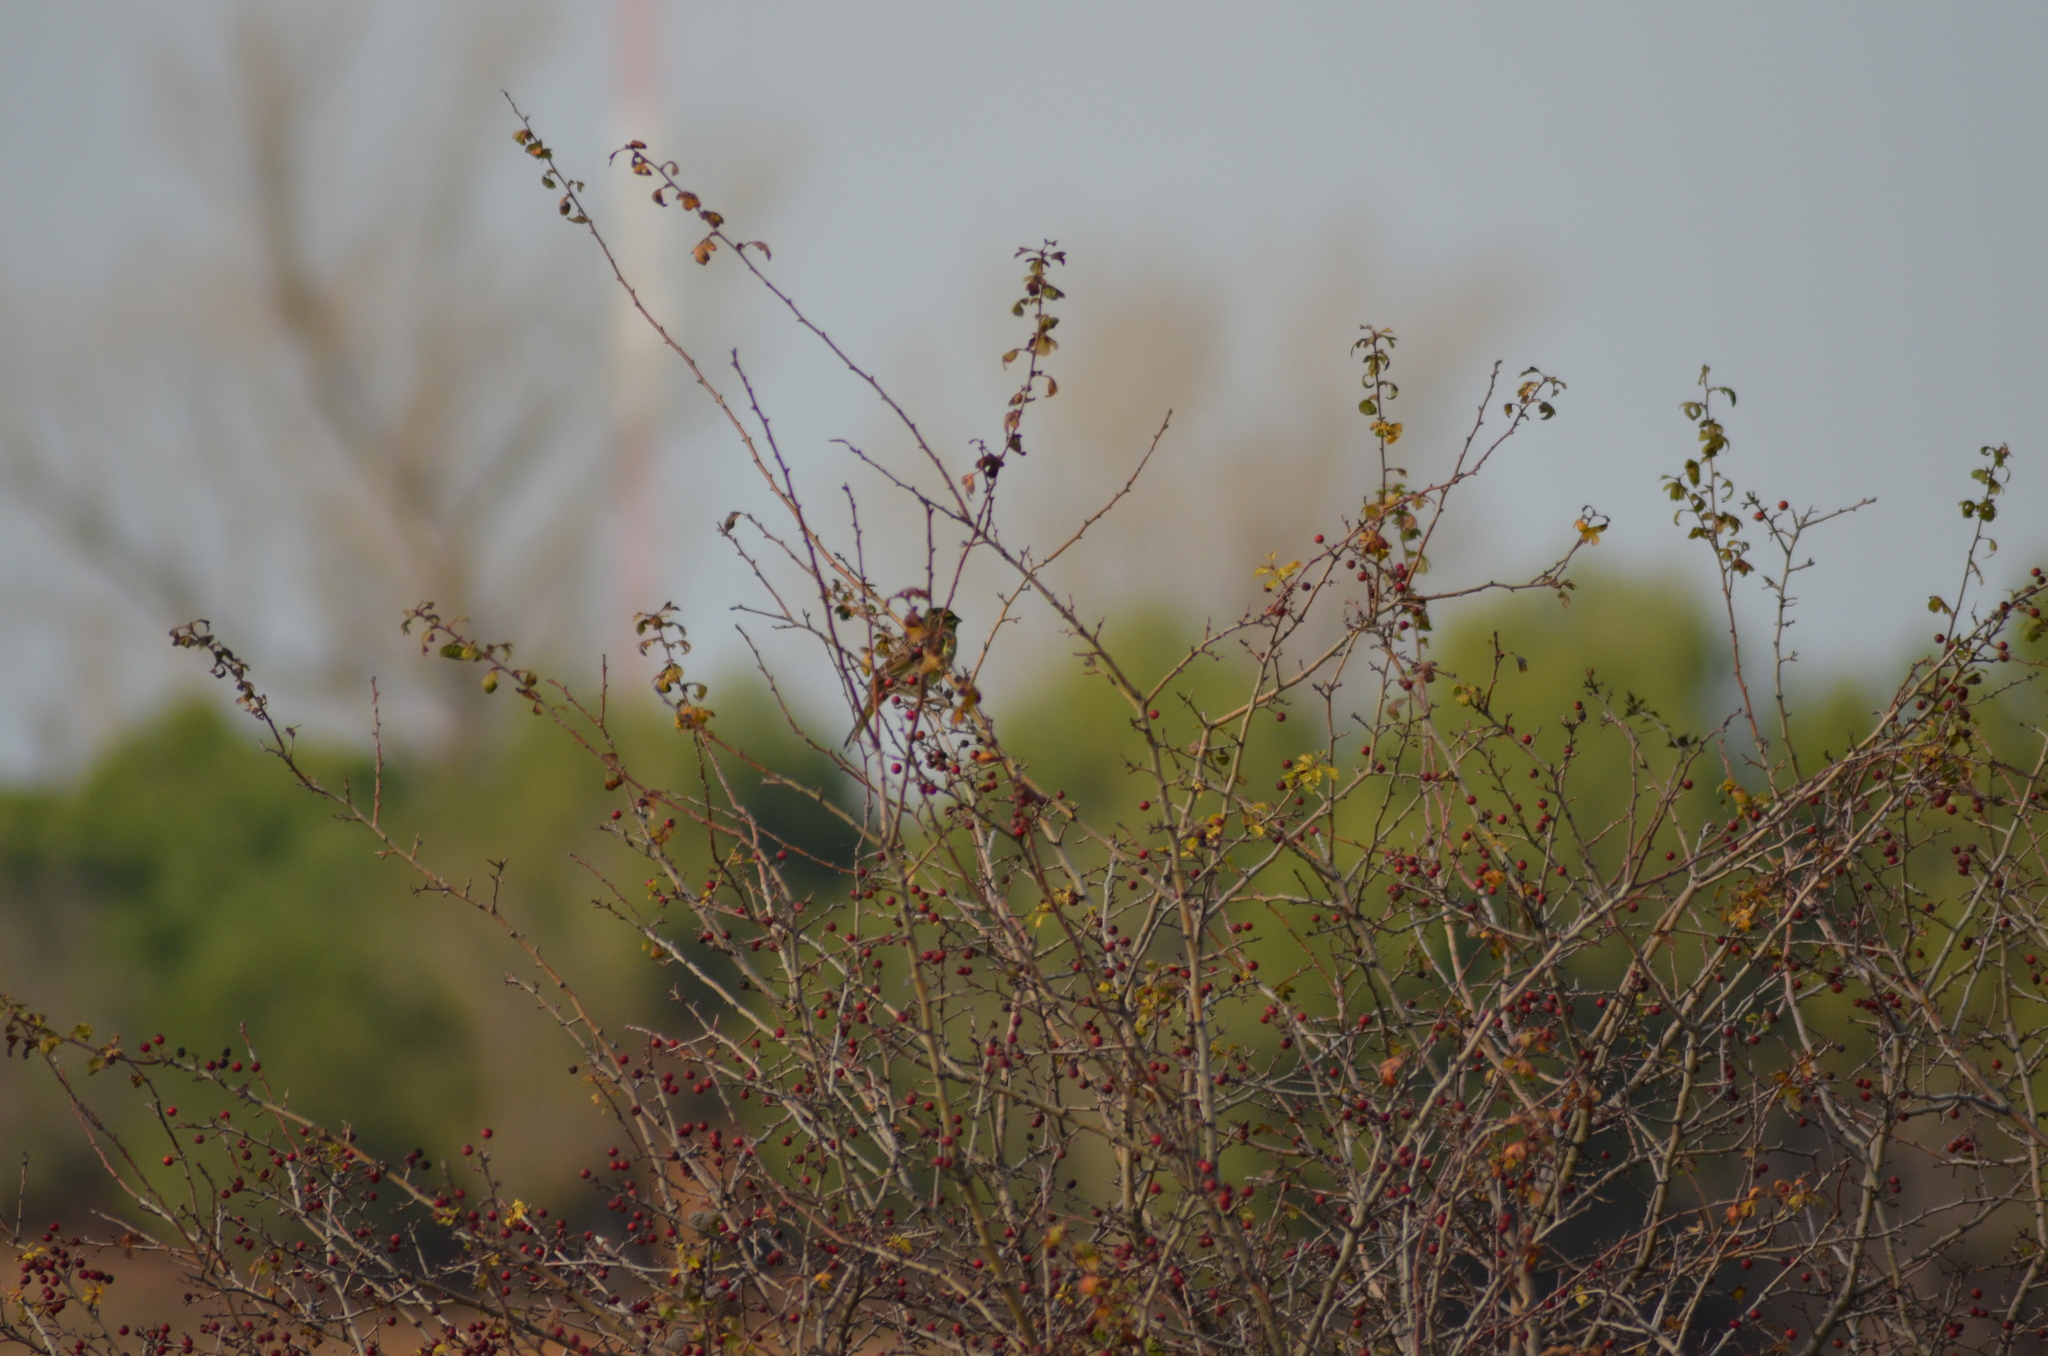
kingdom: Animalia
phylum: Chordata
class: Aves
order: Passeriformes
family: Emberizidae
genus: Emberiza
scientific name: Emberiza cirlus
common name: Cirl bunting
